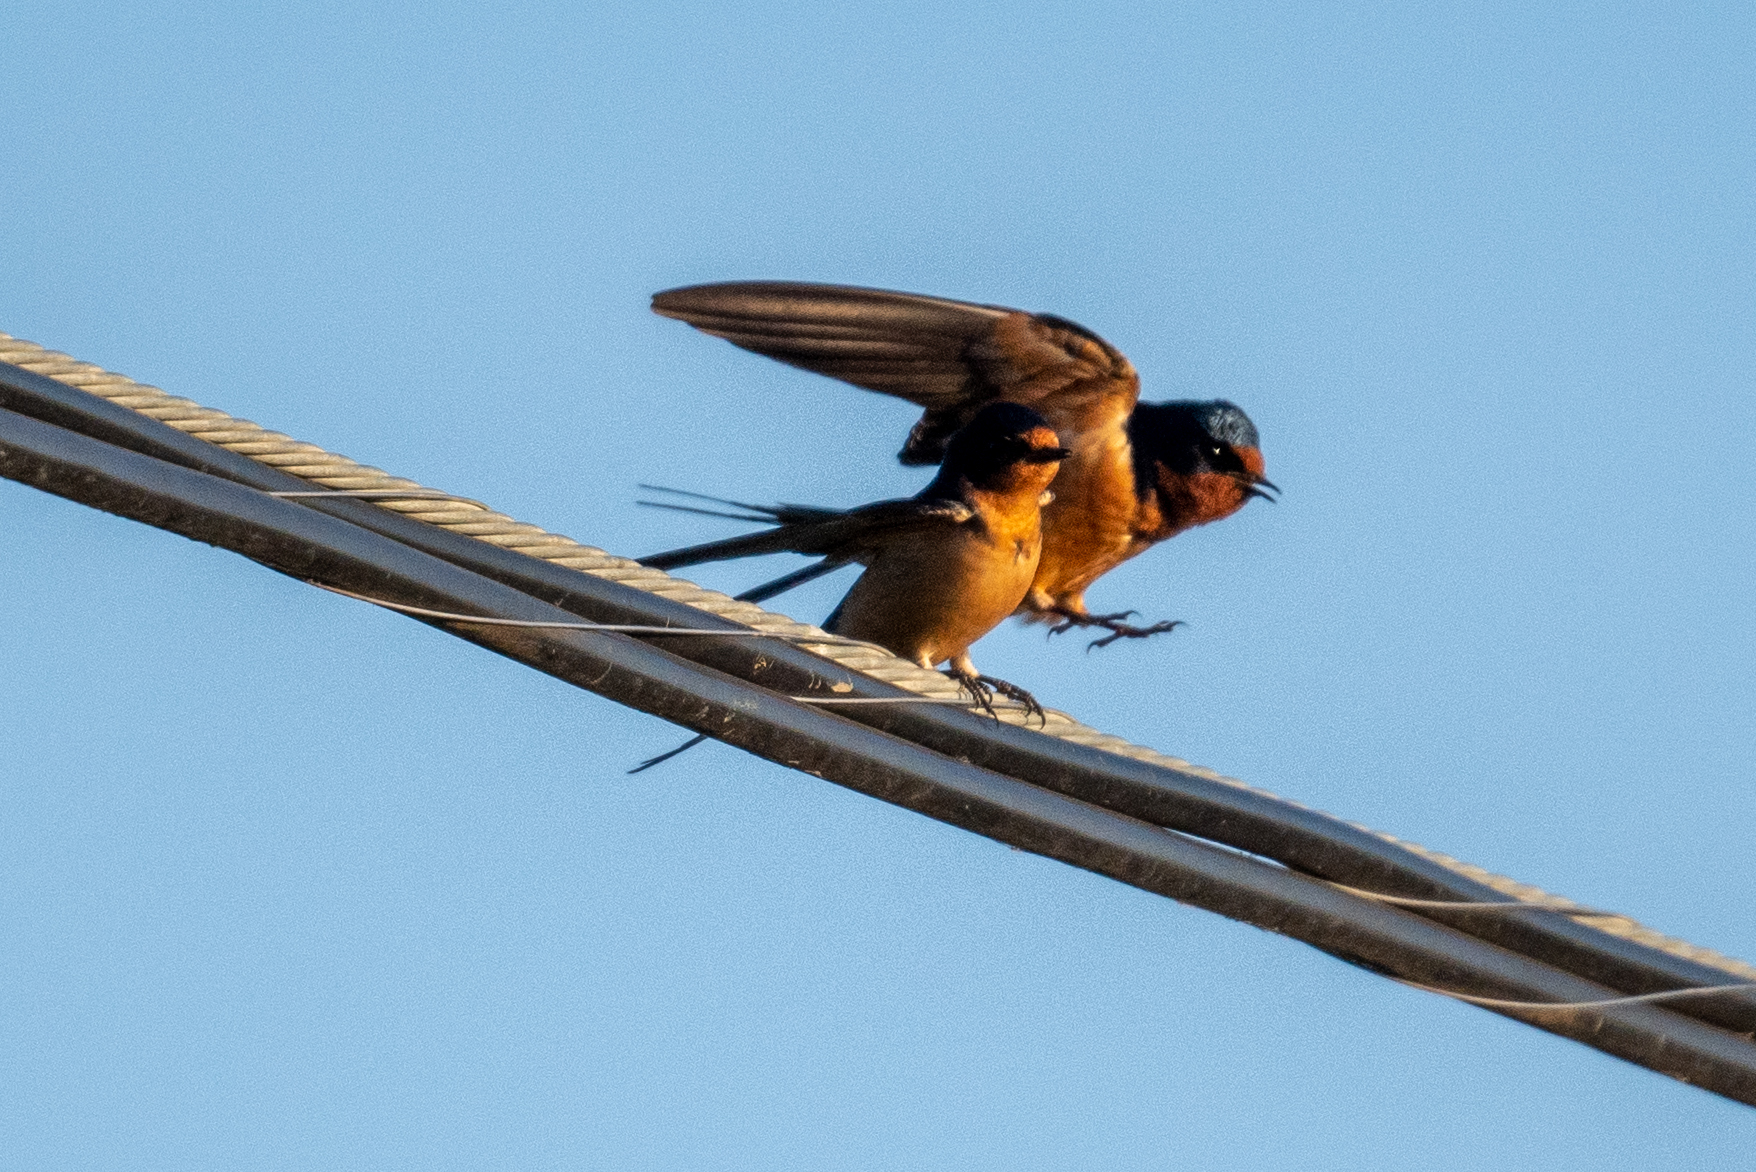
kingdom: Animalia
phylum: Chordata
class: Aves
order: Passeriformes
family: Hirundinidae
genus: Hirundo
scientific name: Hirundo rustica
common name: Barn swallow
